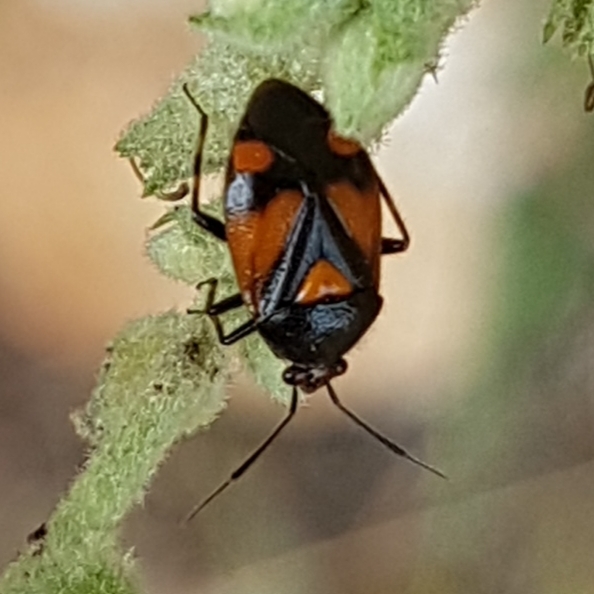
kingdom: Animalia
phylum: Arthropoda
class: Insecta
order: Hemiptera
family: Miridae
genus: Deraeocoris
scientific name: Deraeocoris schach
